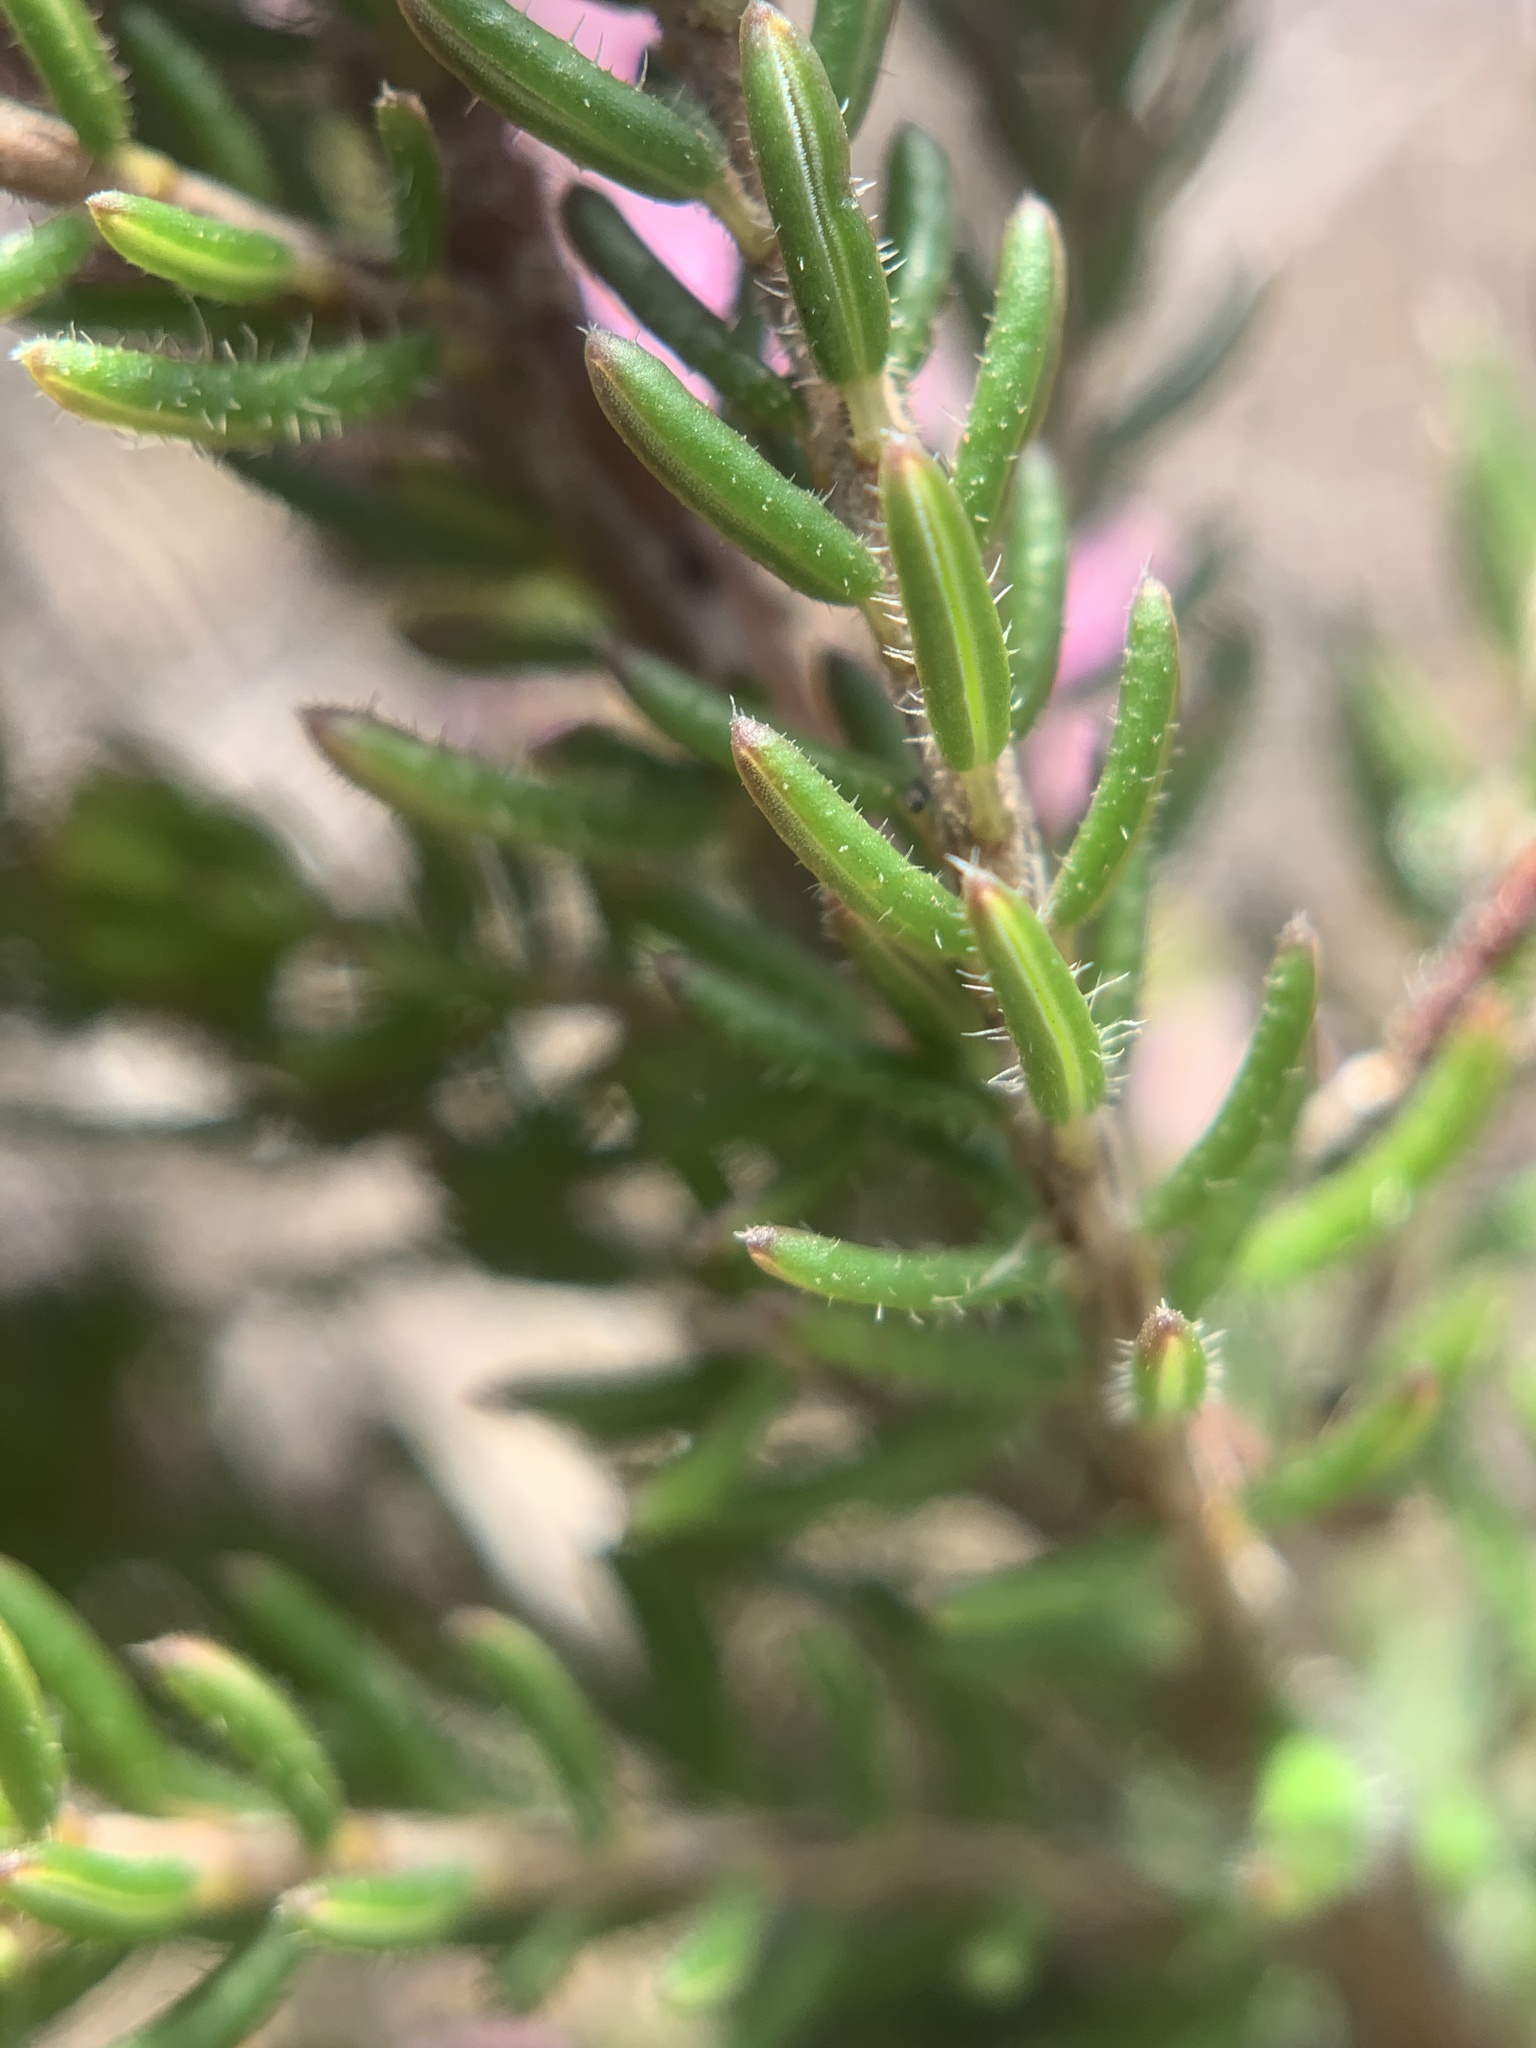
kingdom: Plantae
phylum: Tracheophyta
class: Magnoliopsida
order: Ericales
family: Ericaceae
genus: Erica
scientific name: Erica nudiflora
